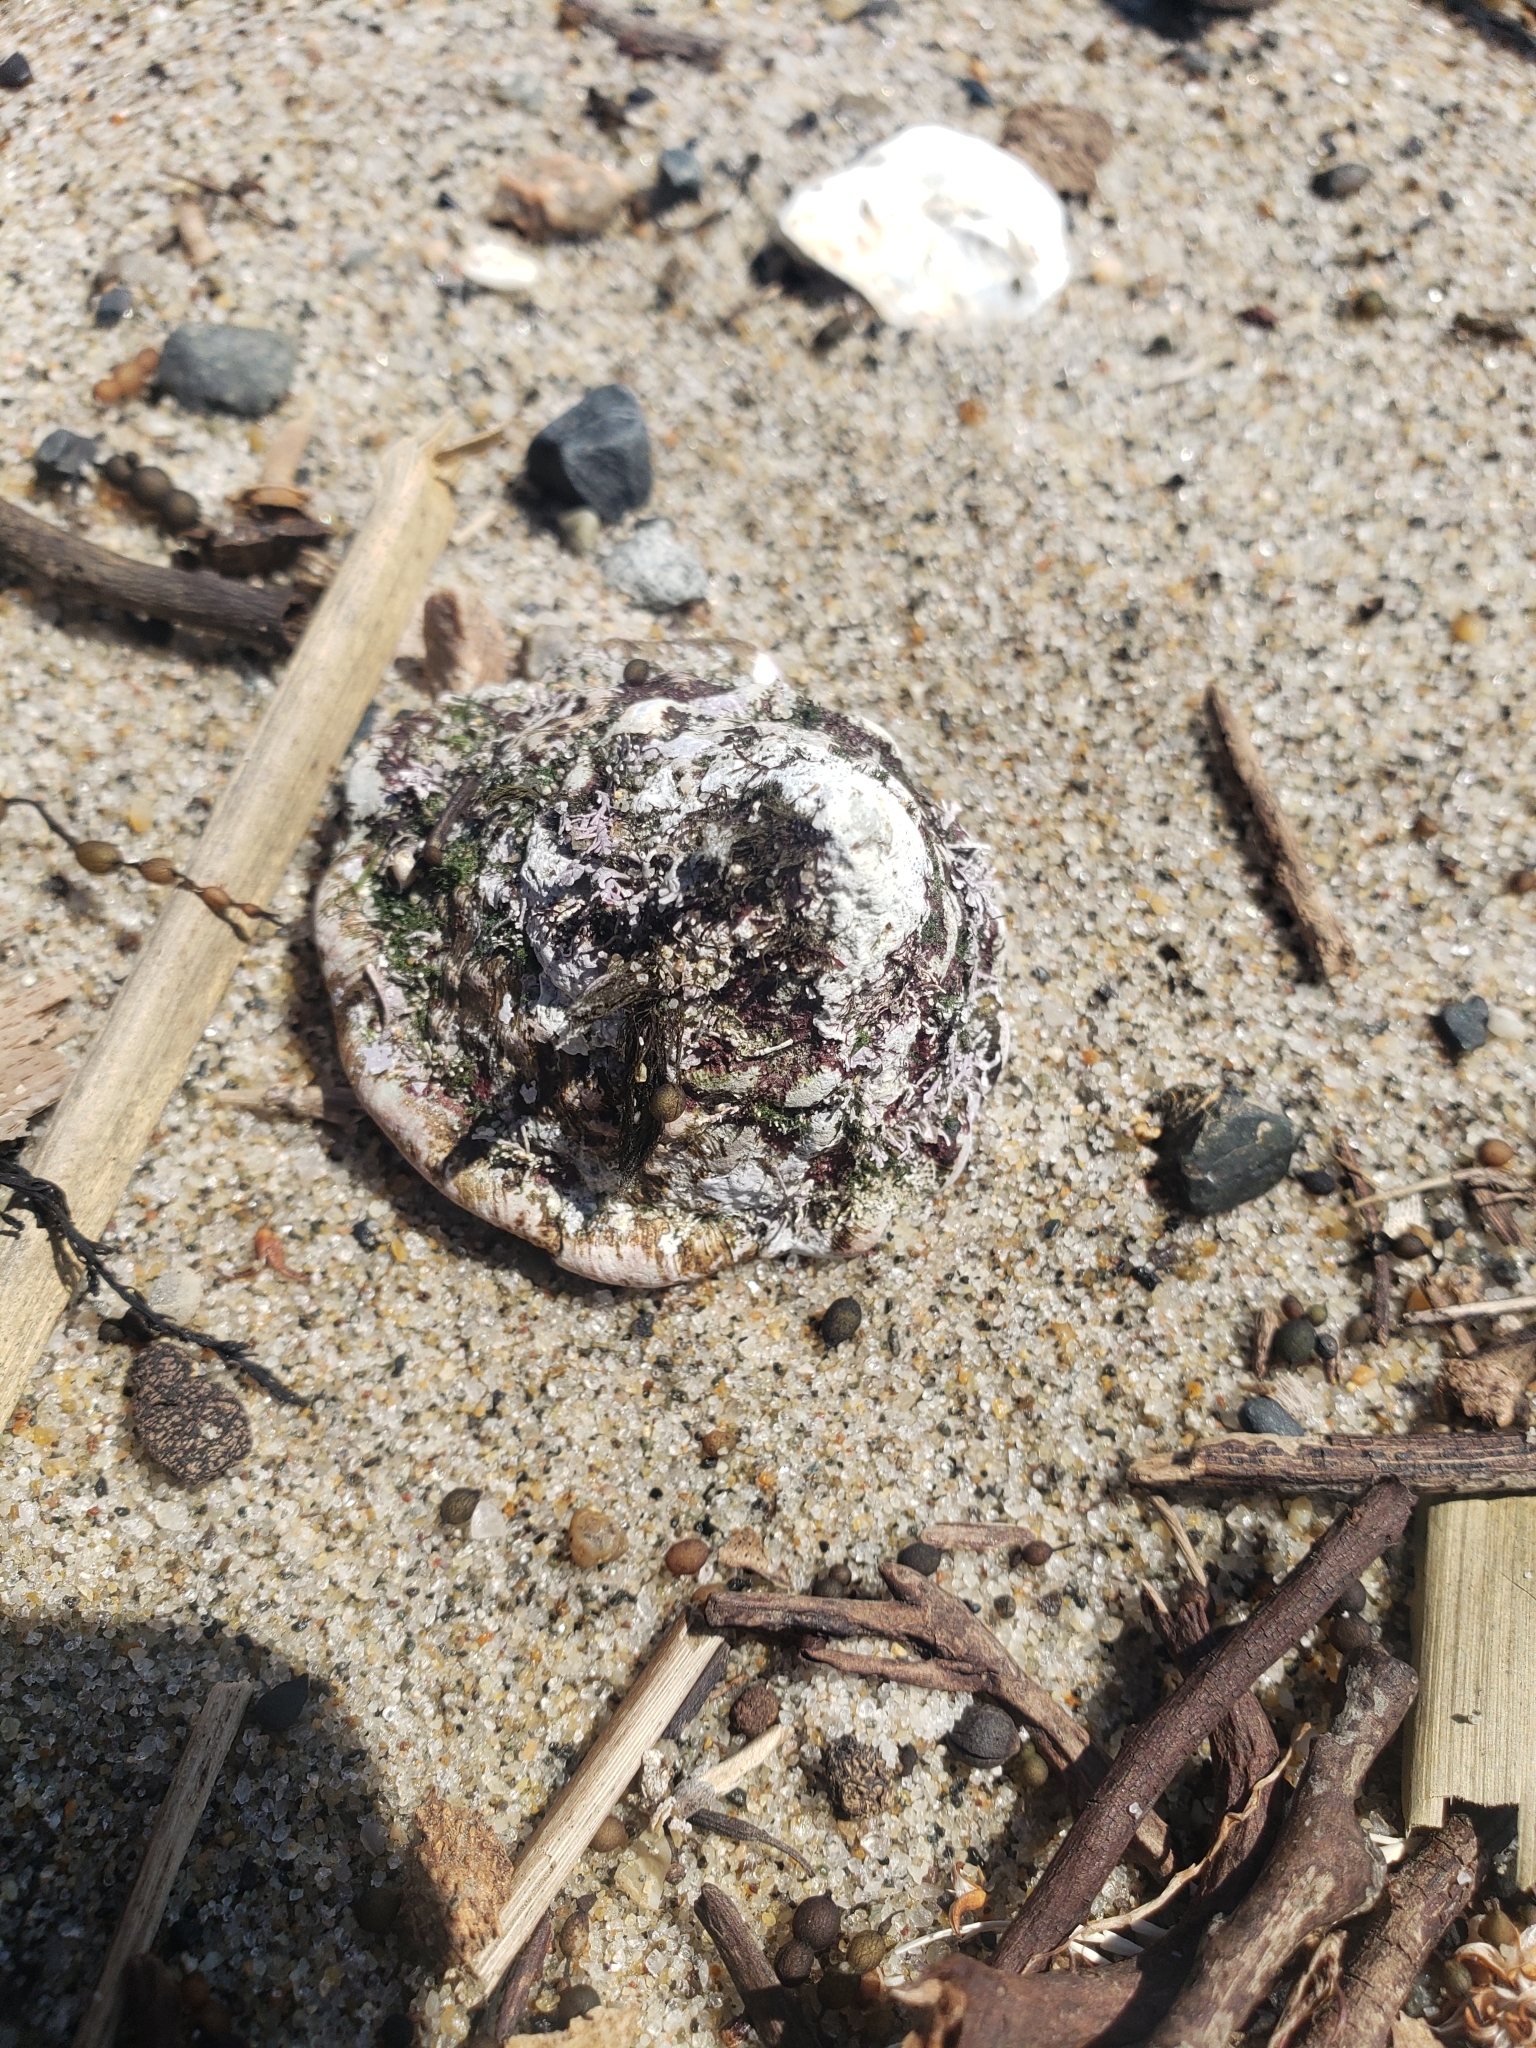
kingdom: Animalia
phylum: Mollusca
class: Gastropoda
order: Trochida
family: Turbinidae
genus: Megastraea
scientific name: Megastraea undosa
